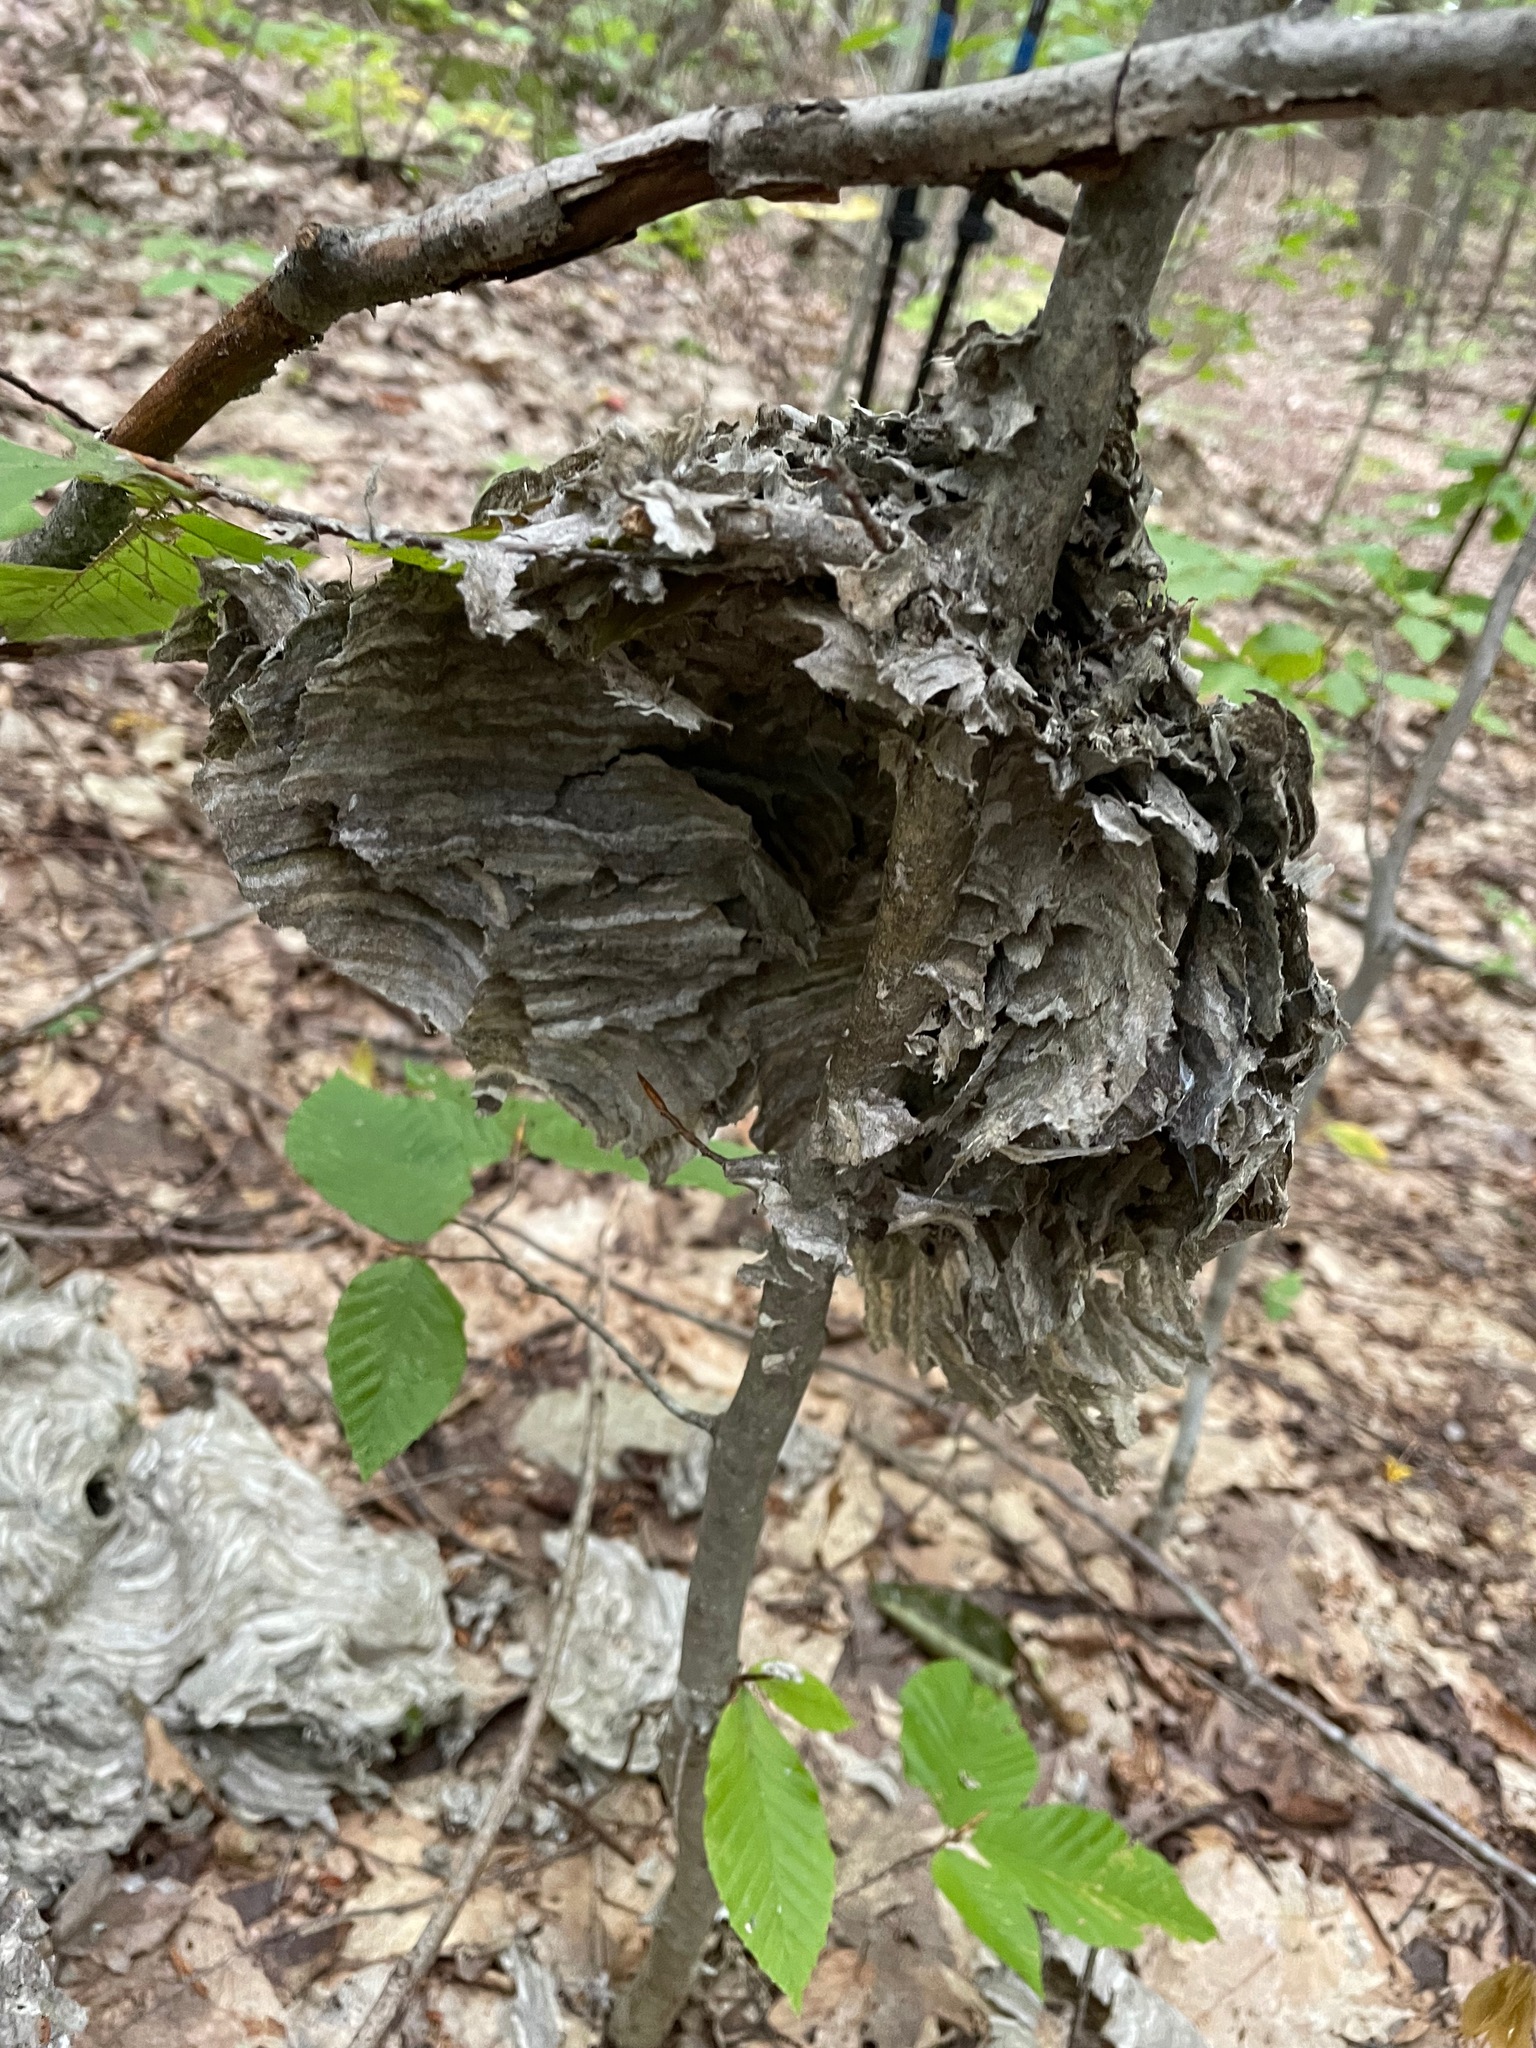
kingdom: Animalia
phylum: Arthropoda
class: Insecta
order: Hymenoptera
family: Vespidae
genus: Dolichovespula
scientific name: Dolichovespula maculata
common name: Bald-faced hornet
